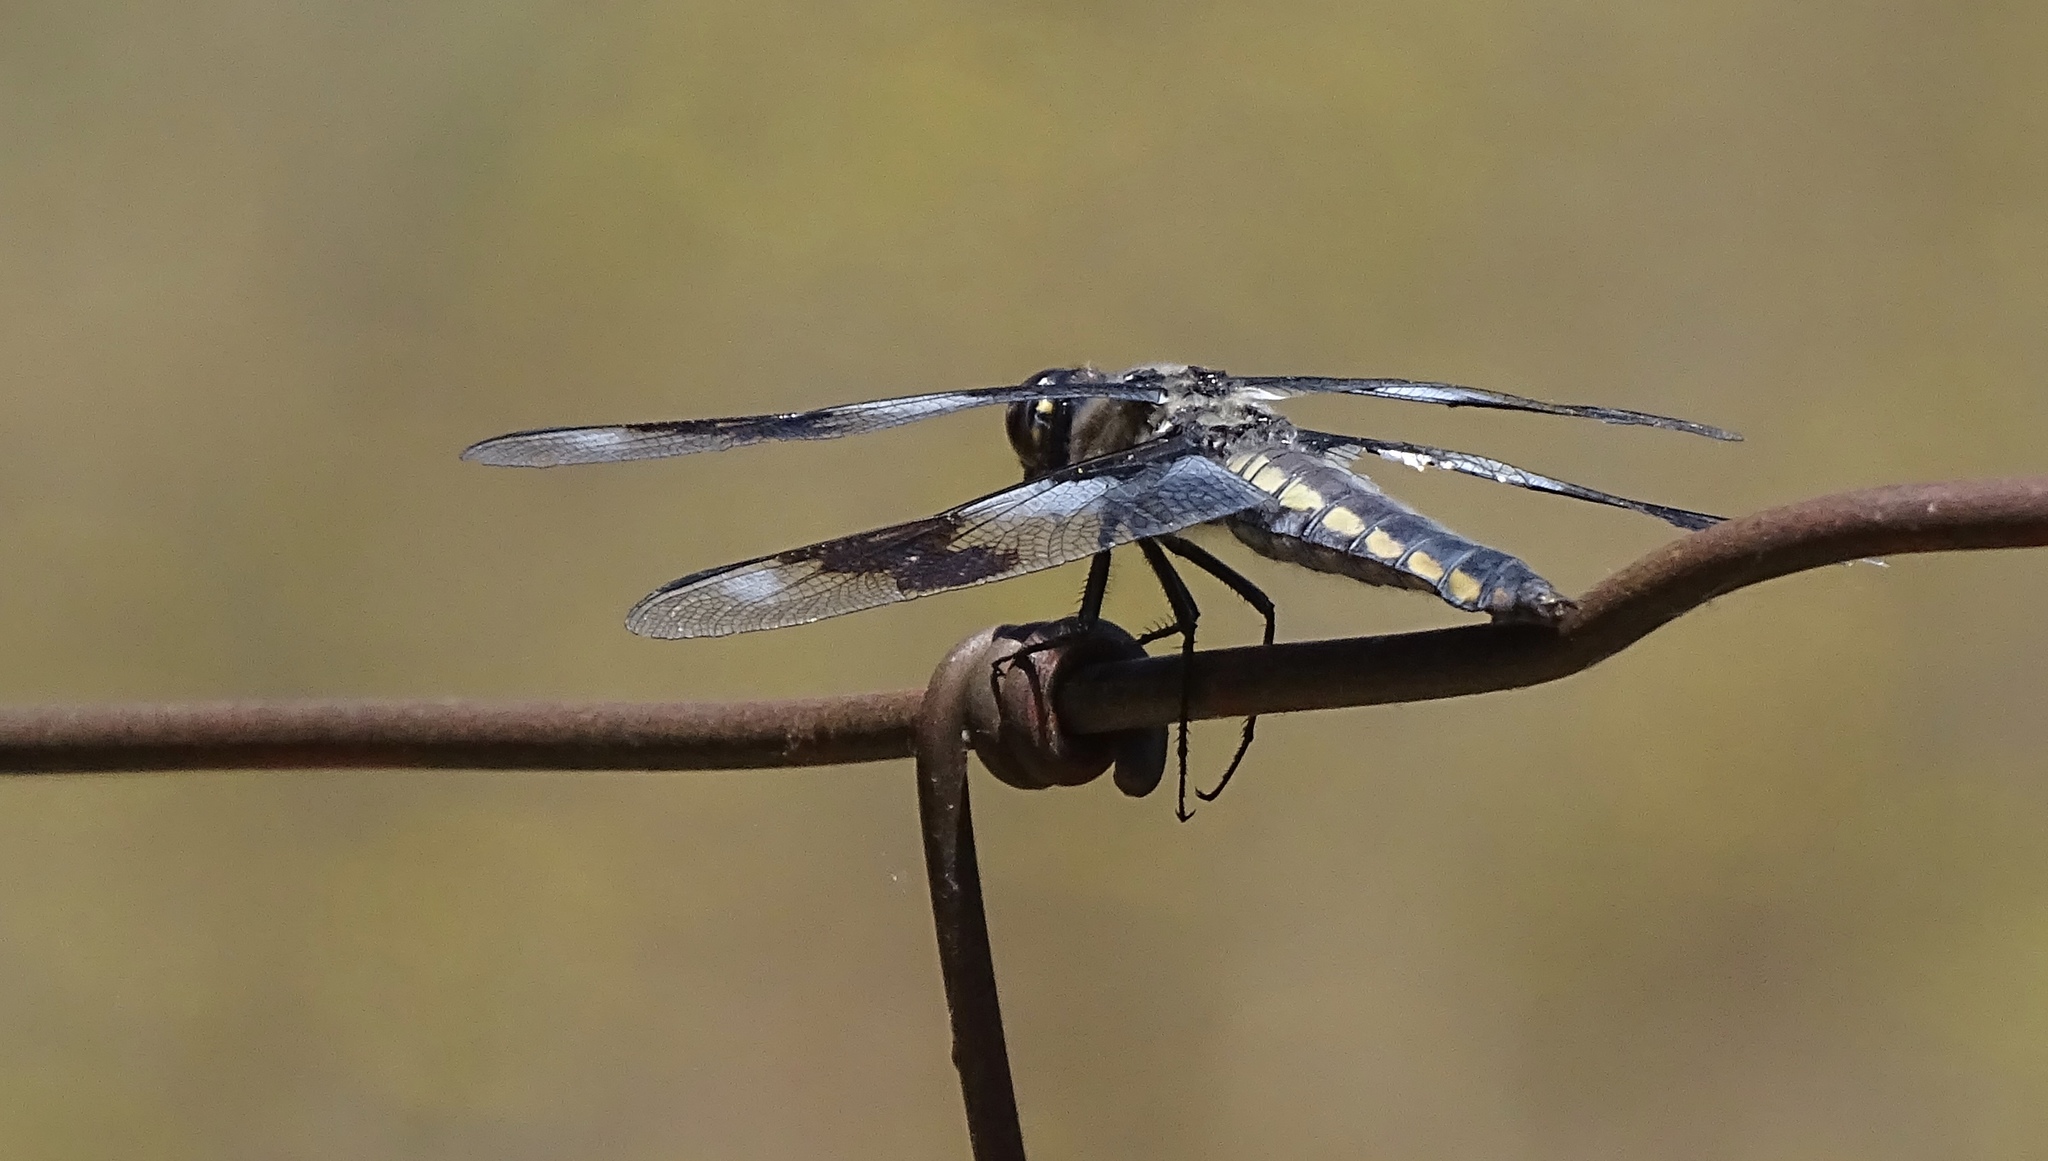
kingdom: Animalia
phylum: Arthropoda
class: Insecta
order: Odonata
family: Libellulidae
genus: Libellula
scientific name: Libellula forensis
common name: Eight-spotted skimmer
